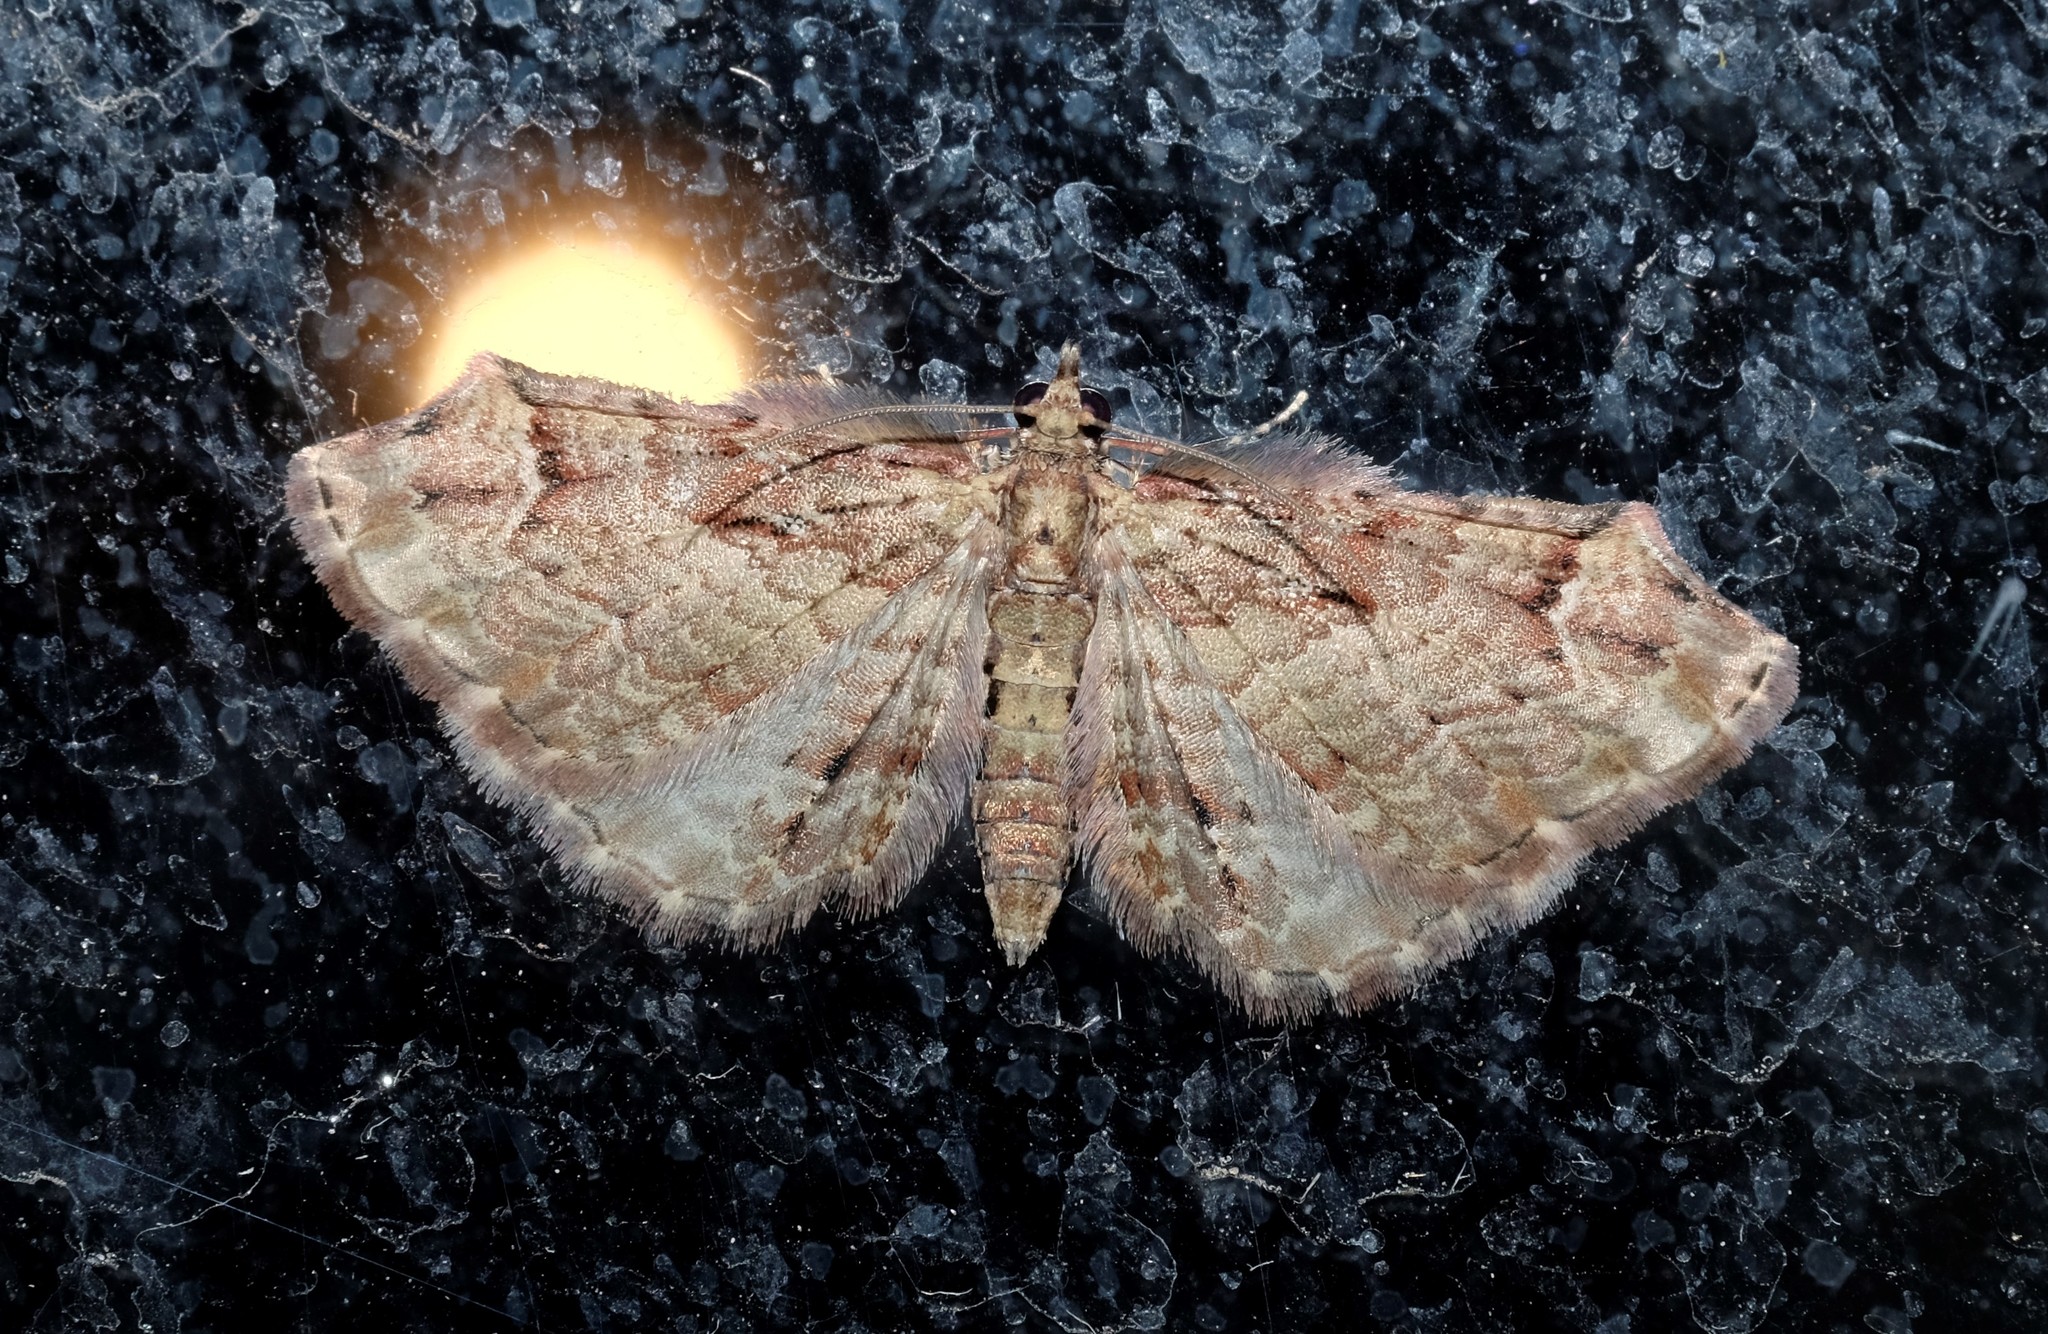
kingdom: Animalia
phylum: Arthropoda
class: Insecta
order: Lepidoptera
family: Geometridae
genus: Chloroclystis
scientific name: Chloroclystis approximata
